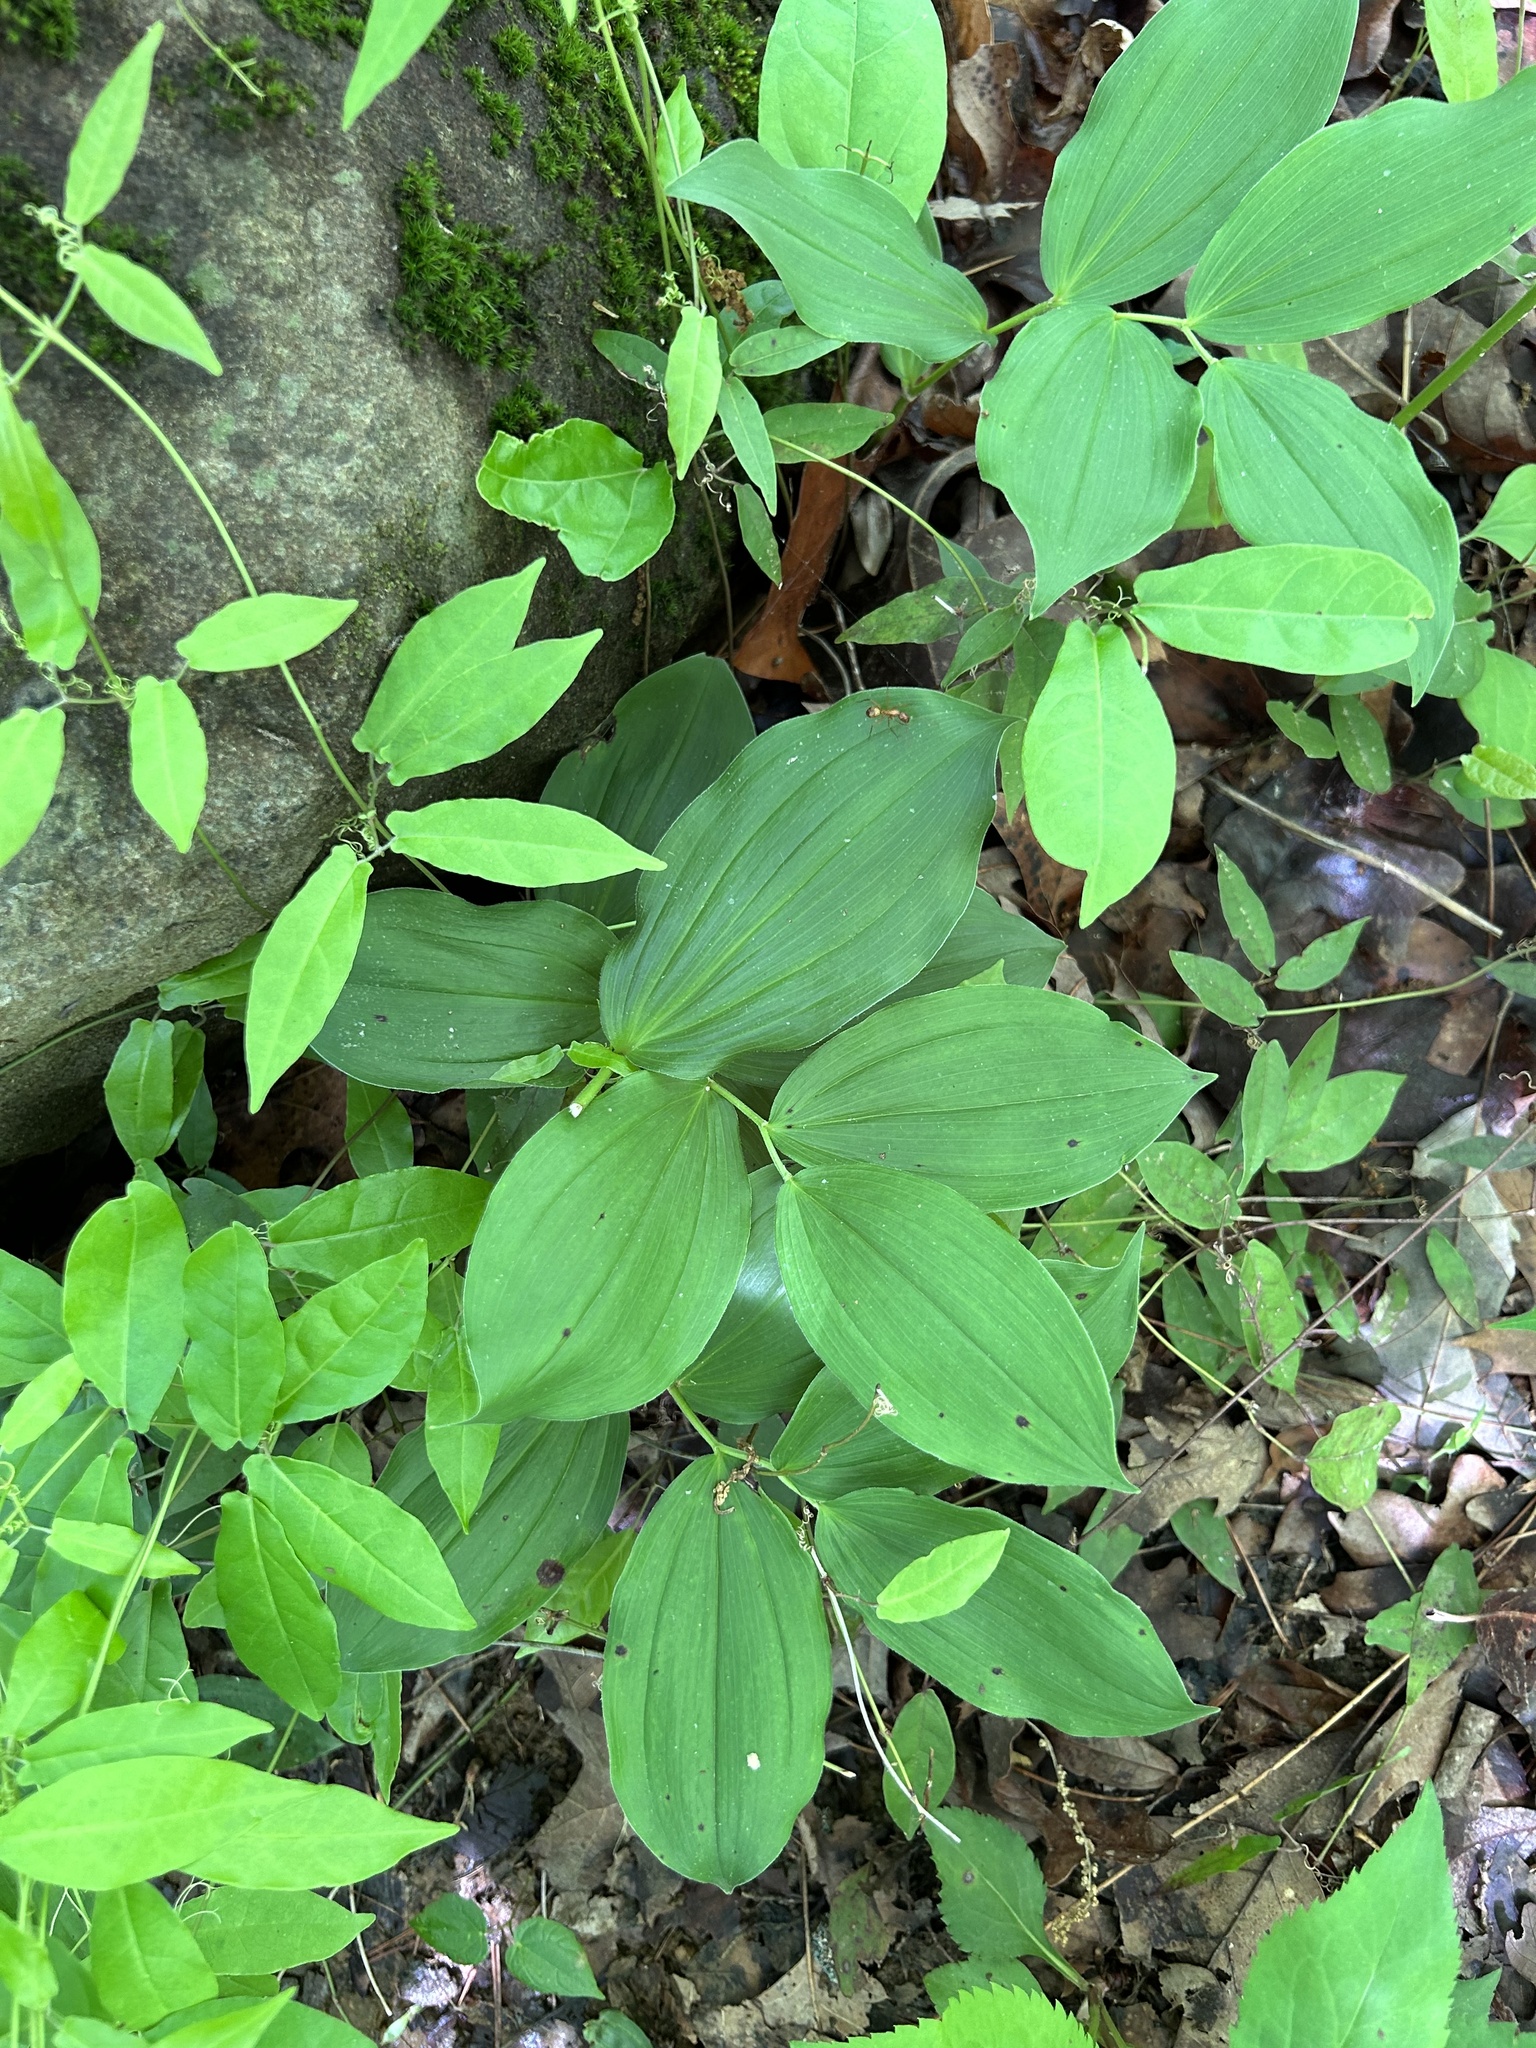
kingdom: Plantae
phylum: Tracheophyta
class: Liliopsida
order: Asparagales
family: Asparagaceae
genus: Maianthemum
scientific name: Maianthemum racemosum
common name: False spikenard
